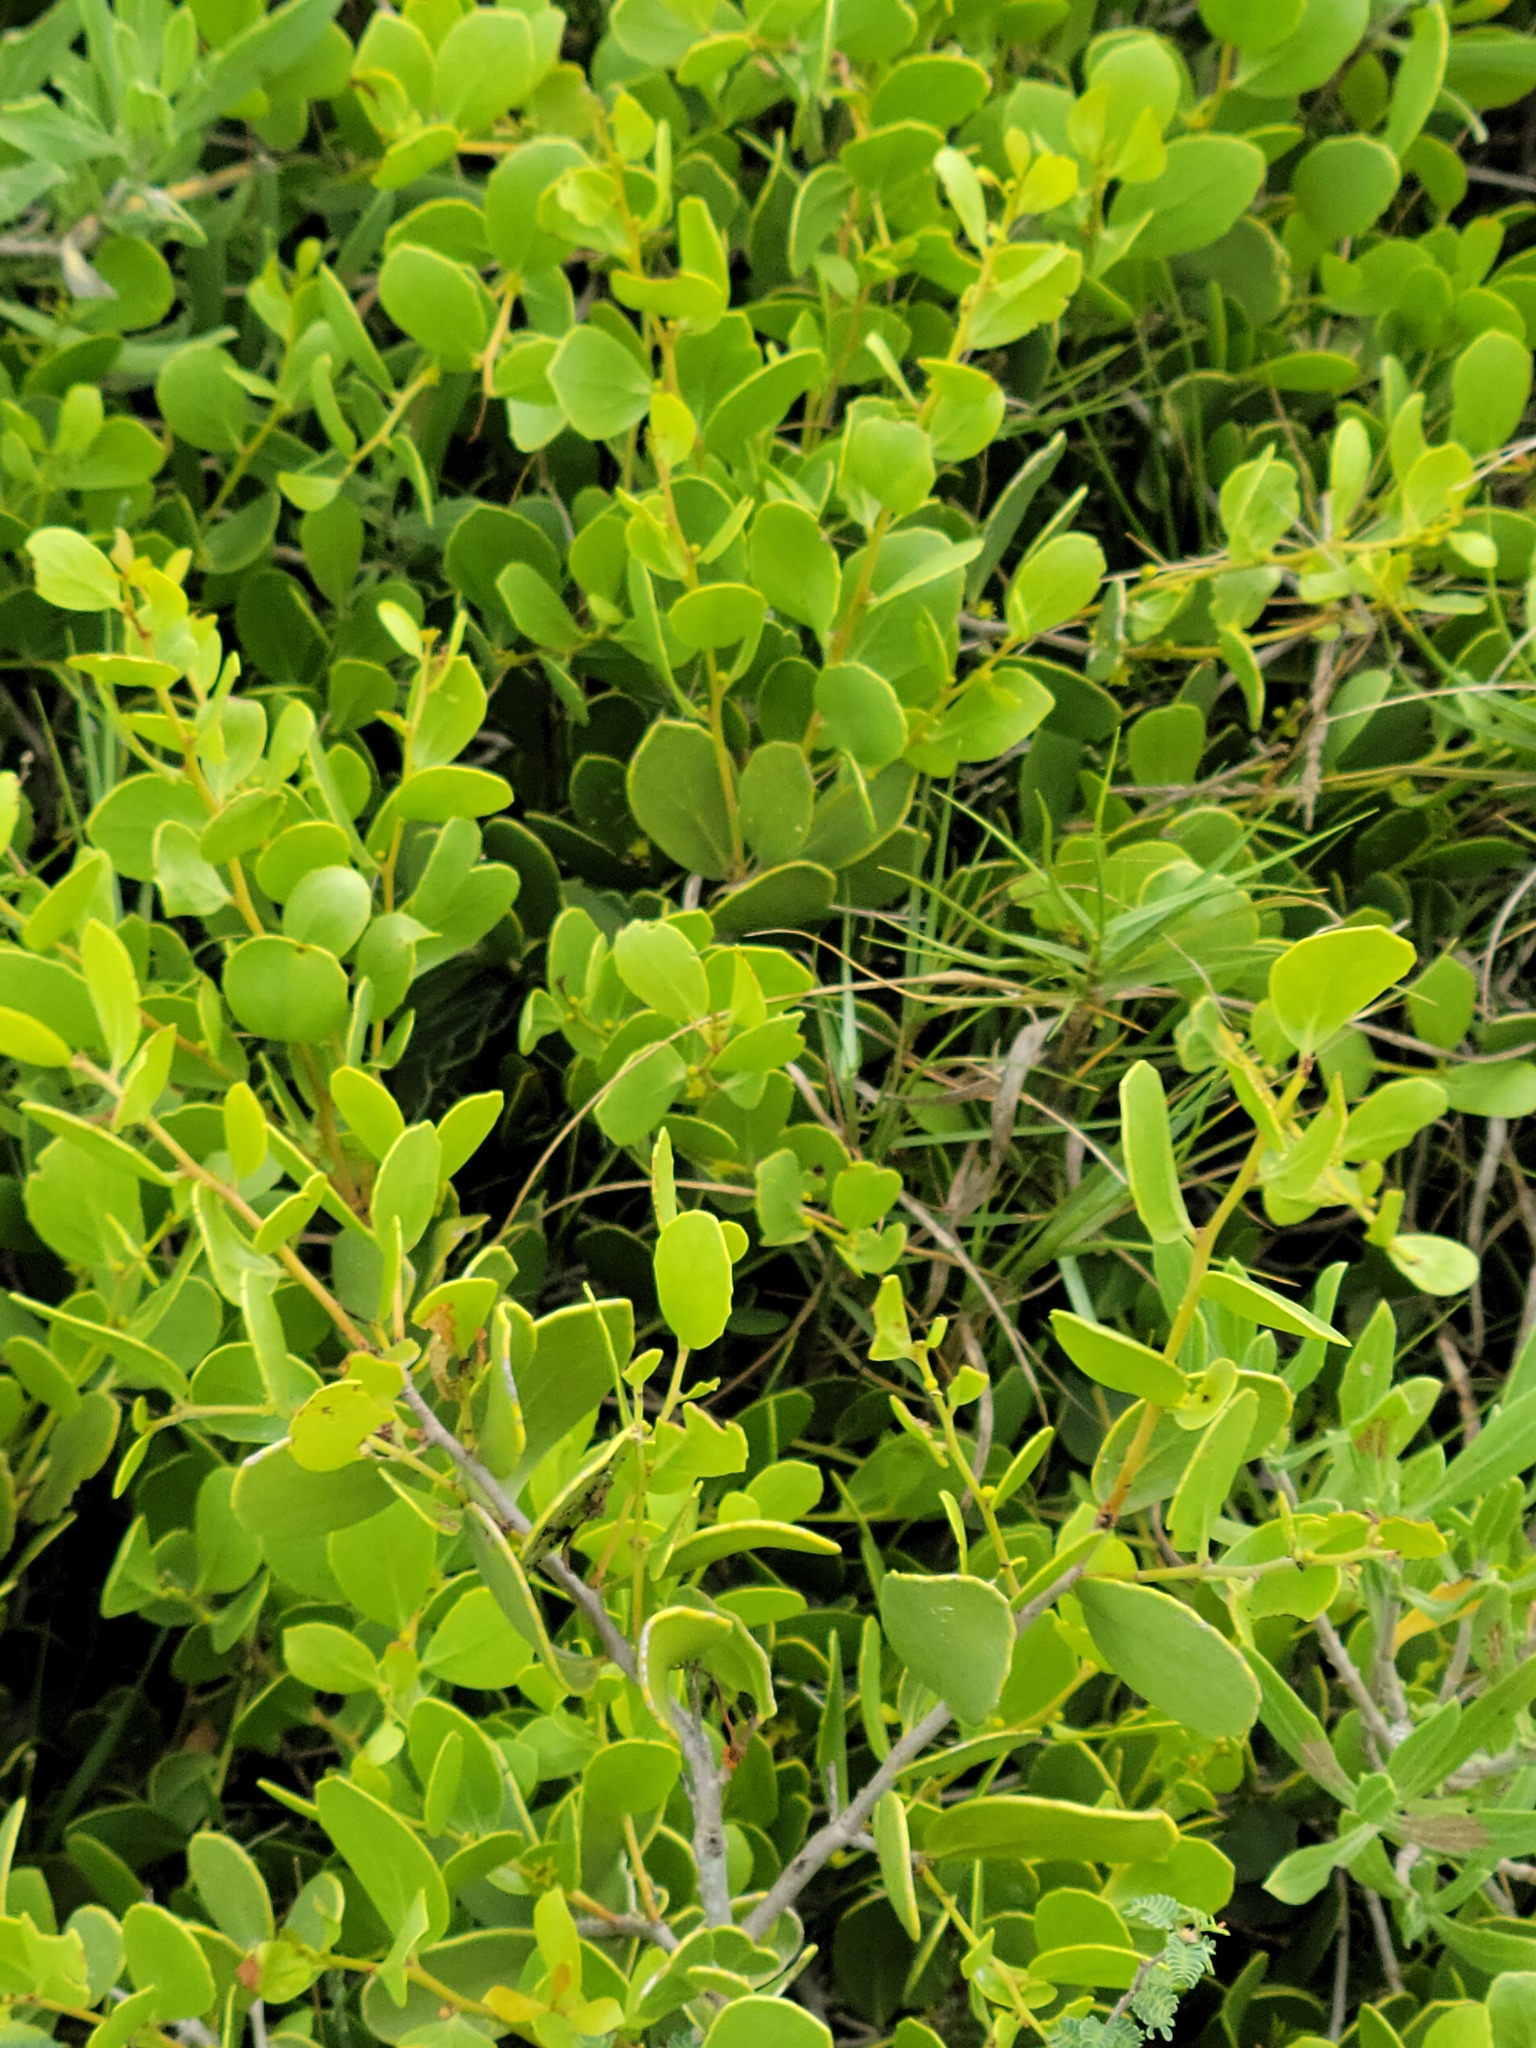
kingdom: Plantae
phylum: Tracheophyta
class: Magnoliopsida
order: Celastrales
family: Celastraceae
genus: Tricerma
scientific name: Tricerma phyllanthoides
